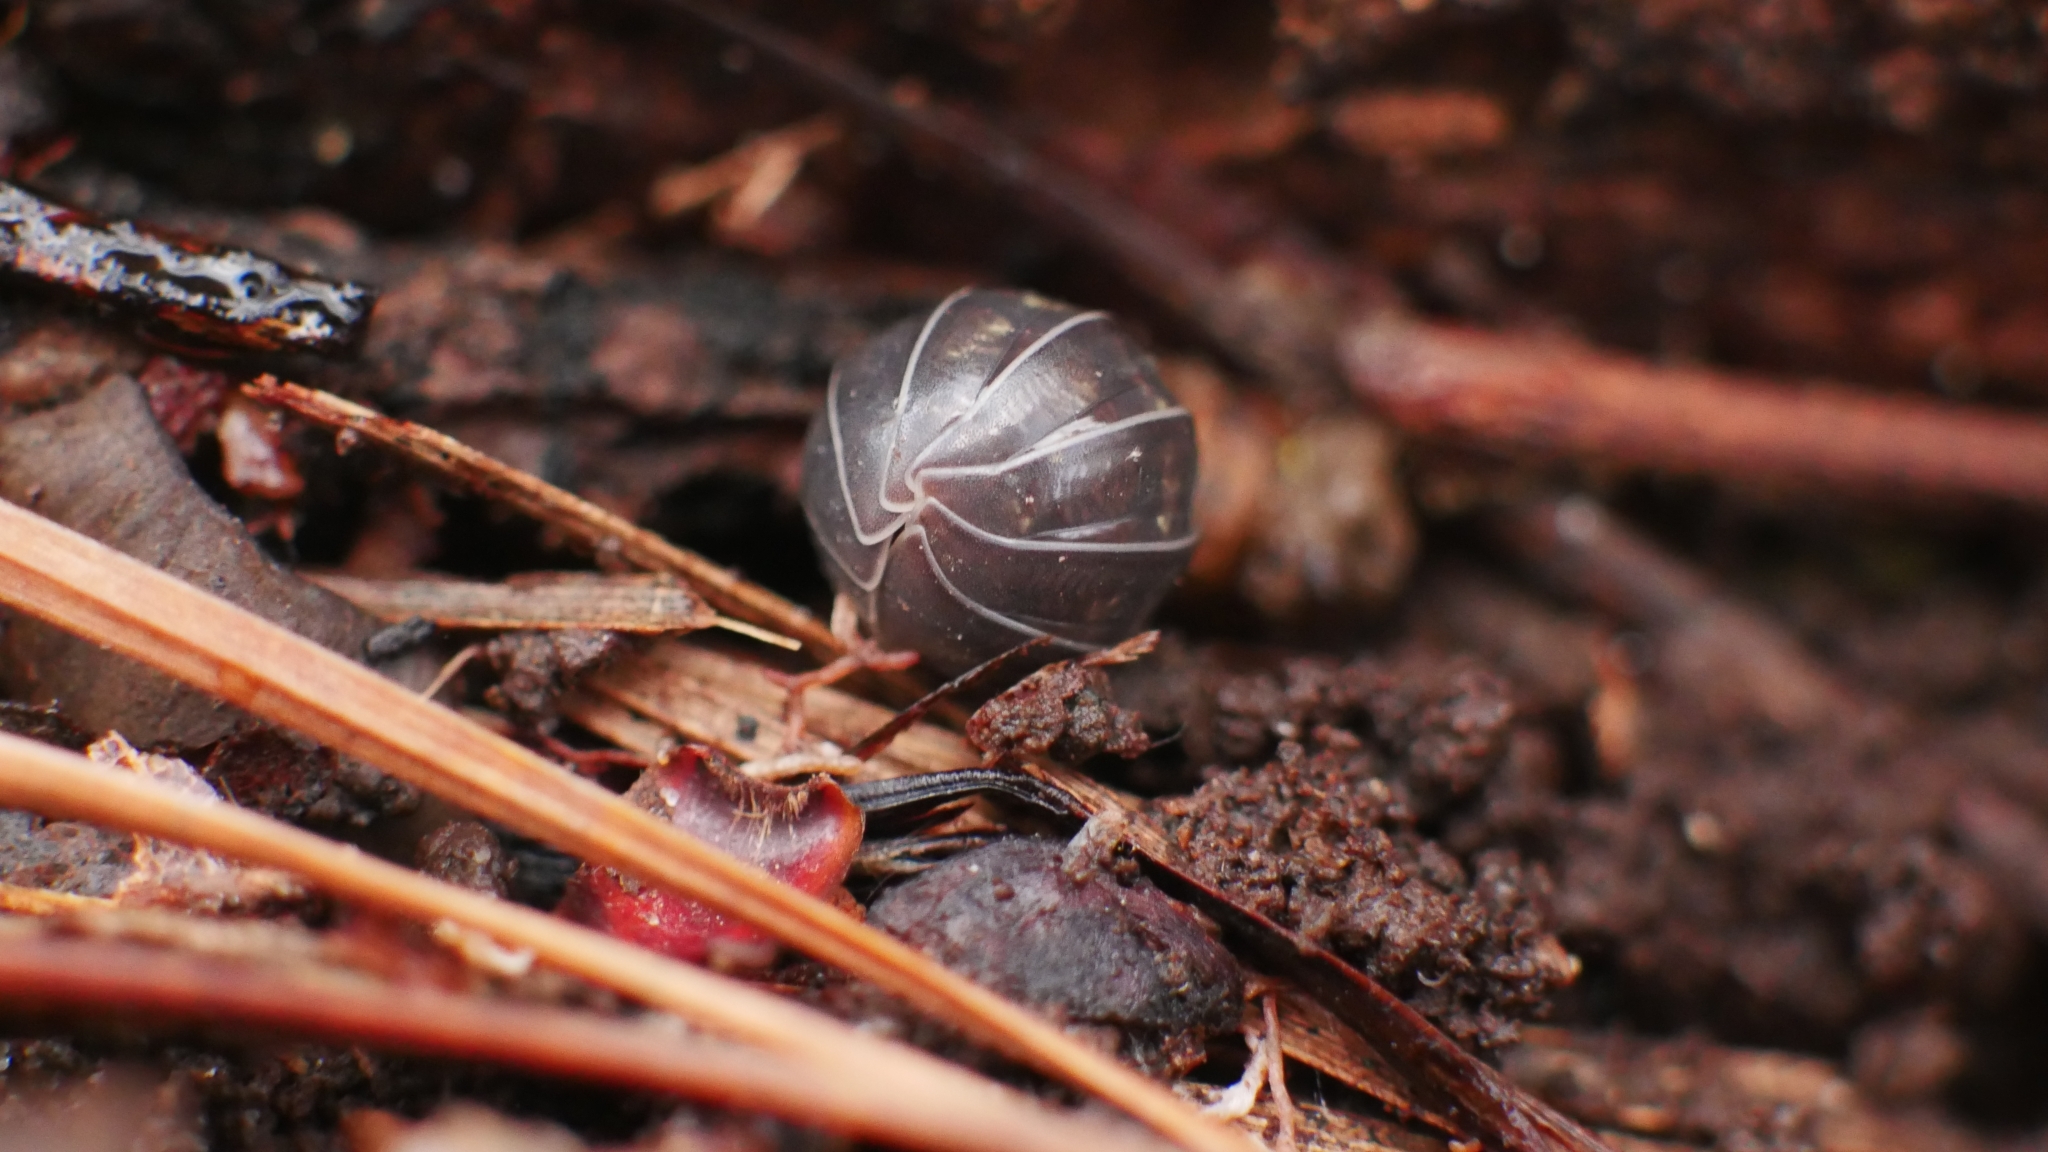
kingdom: Animalia
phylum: Arthropoda
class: Malacostraca
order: Isopoda
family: Armadillidiidae
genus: Armadillidium
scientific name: Armadillidium vulgare
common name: Common pill woodlouse
